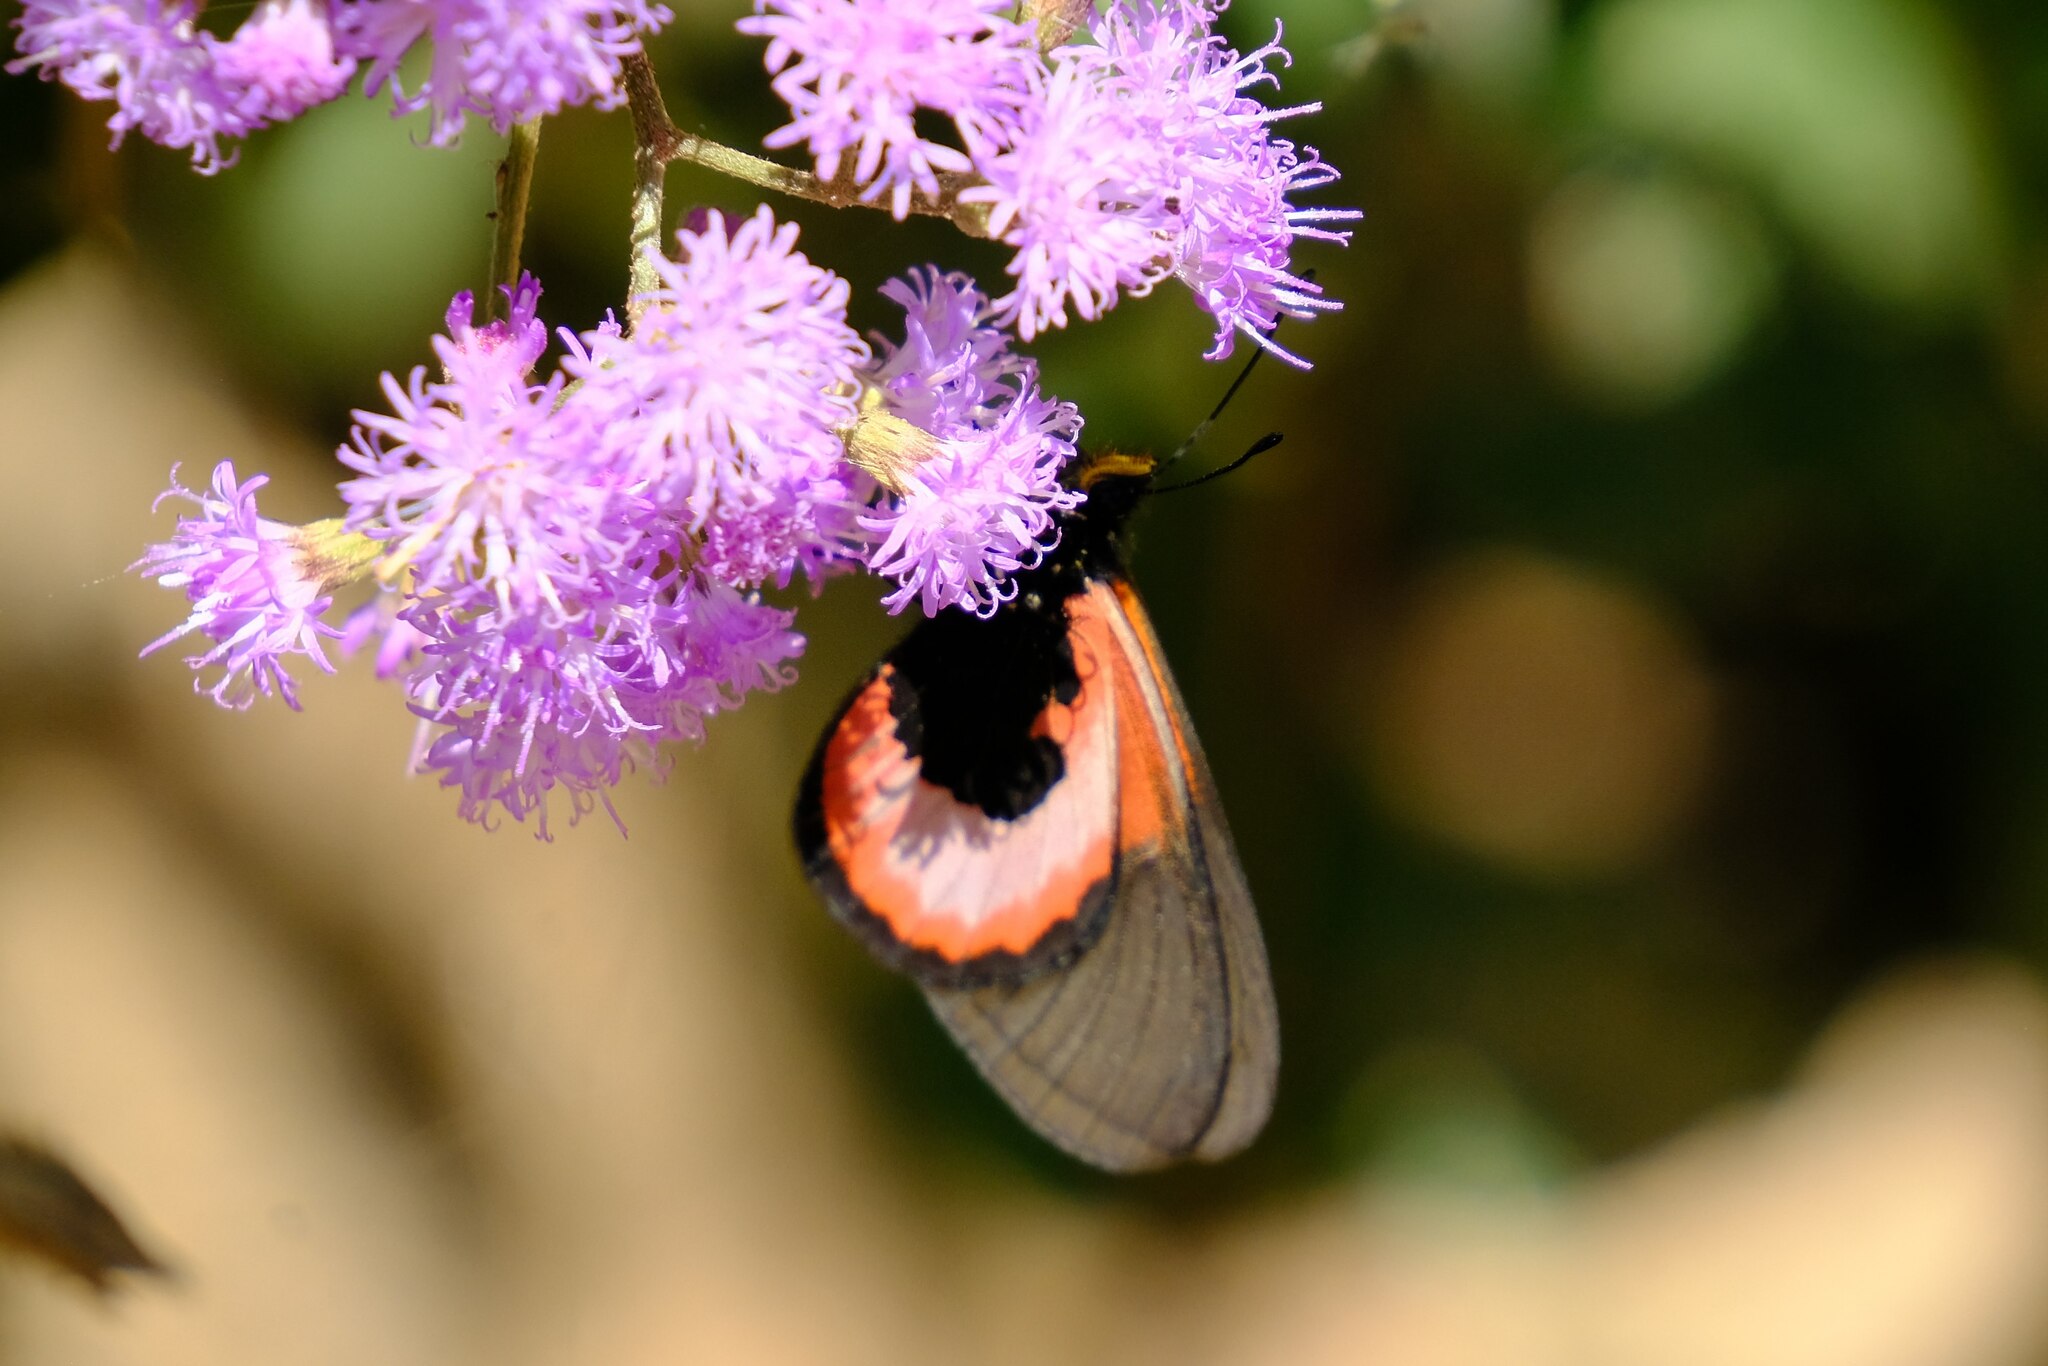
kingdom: Animalia
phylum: Arthropoda
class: Insecta
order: Lepidoptera
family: Nymphalidae
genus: Acraea
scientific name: Acraea insignis
